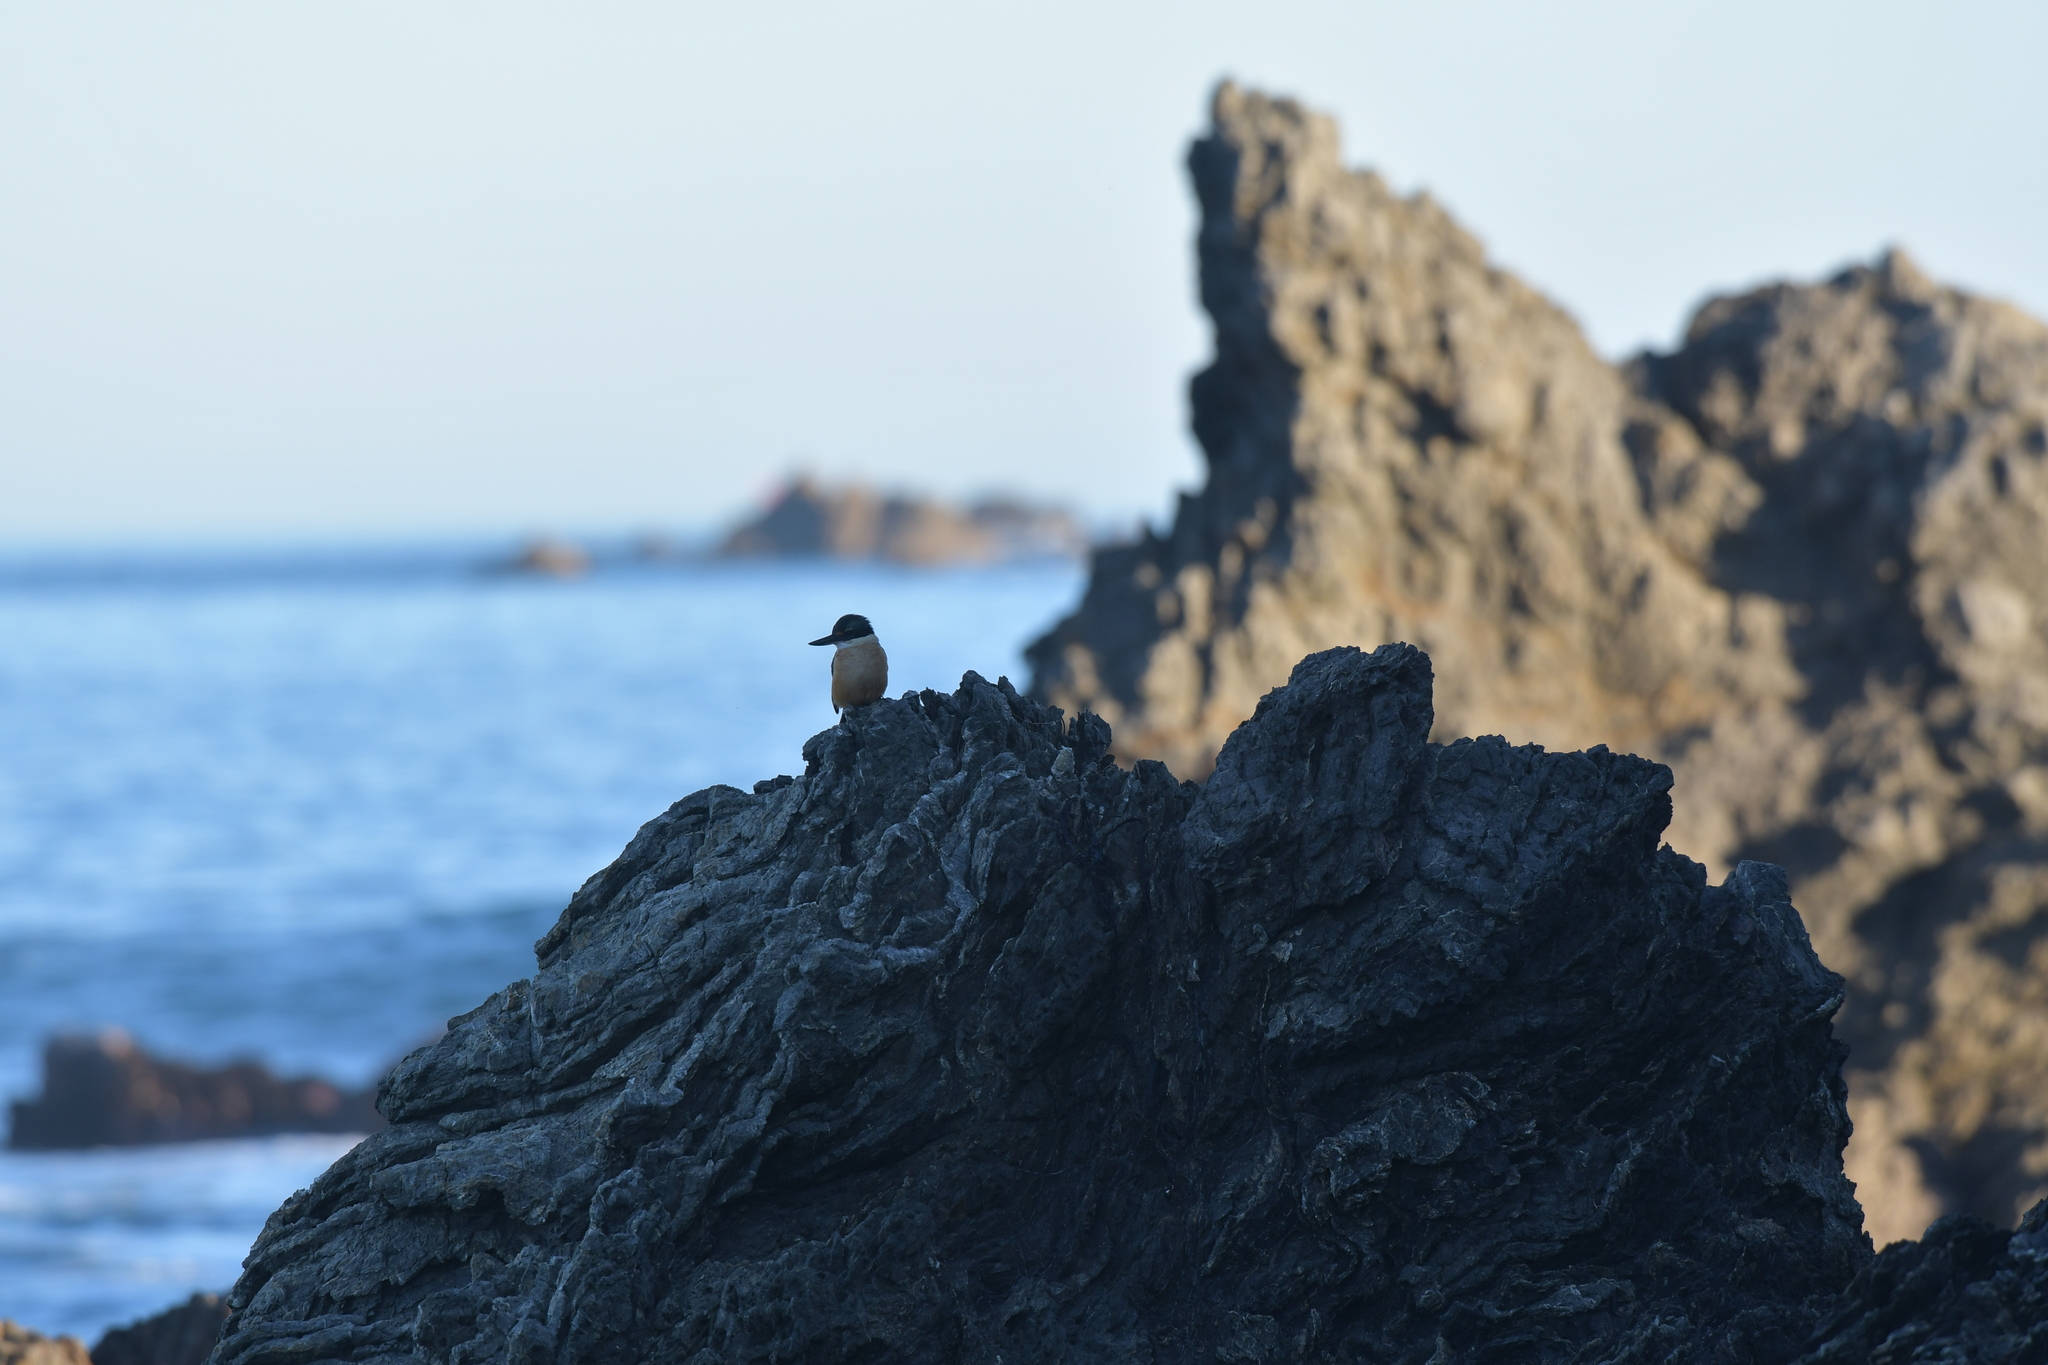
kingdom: Animalia
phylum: Chordata
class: Aves
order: Coraciiformes
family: Alcedinidae
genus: Todiramphus
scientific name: Todiramphus sanctus
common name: Sacred kingfisher
